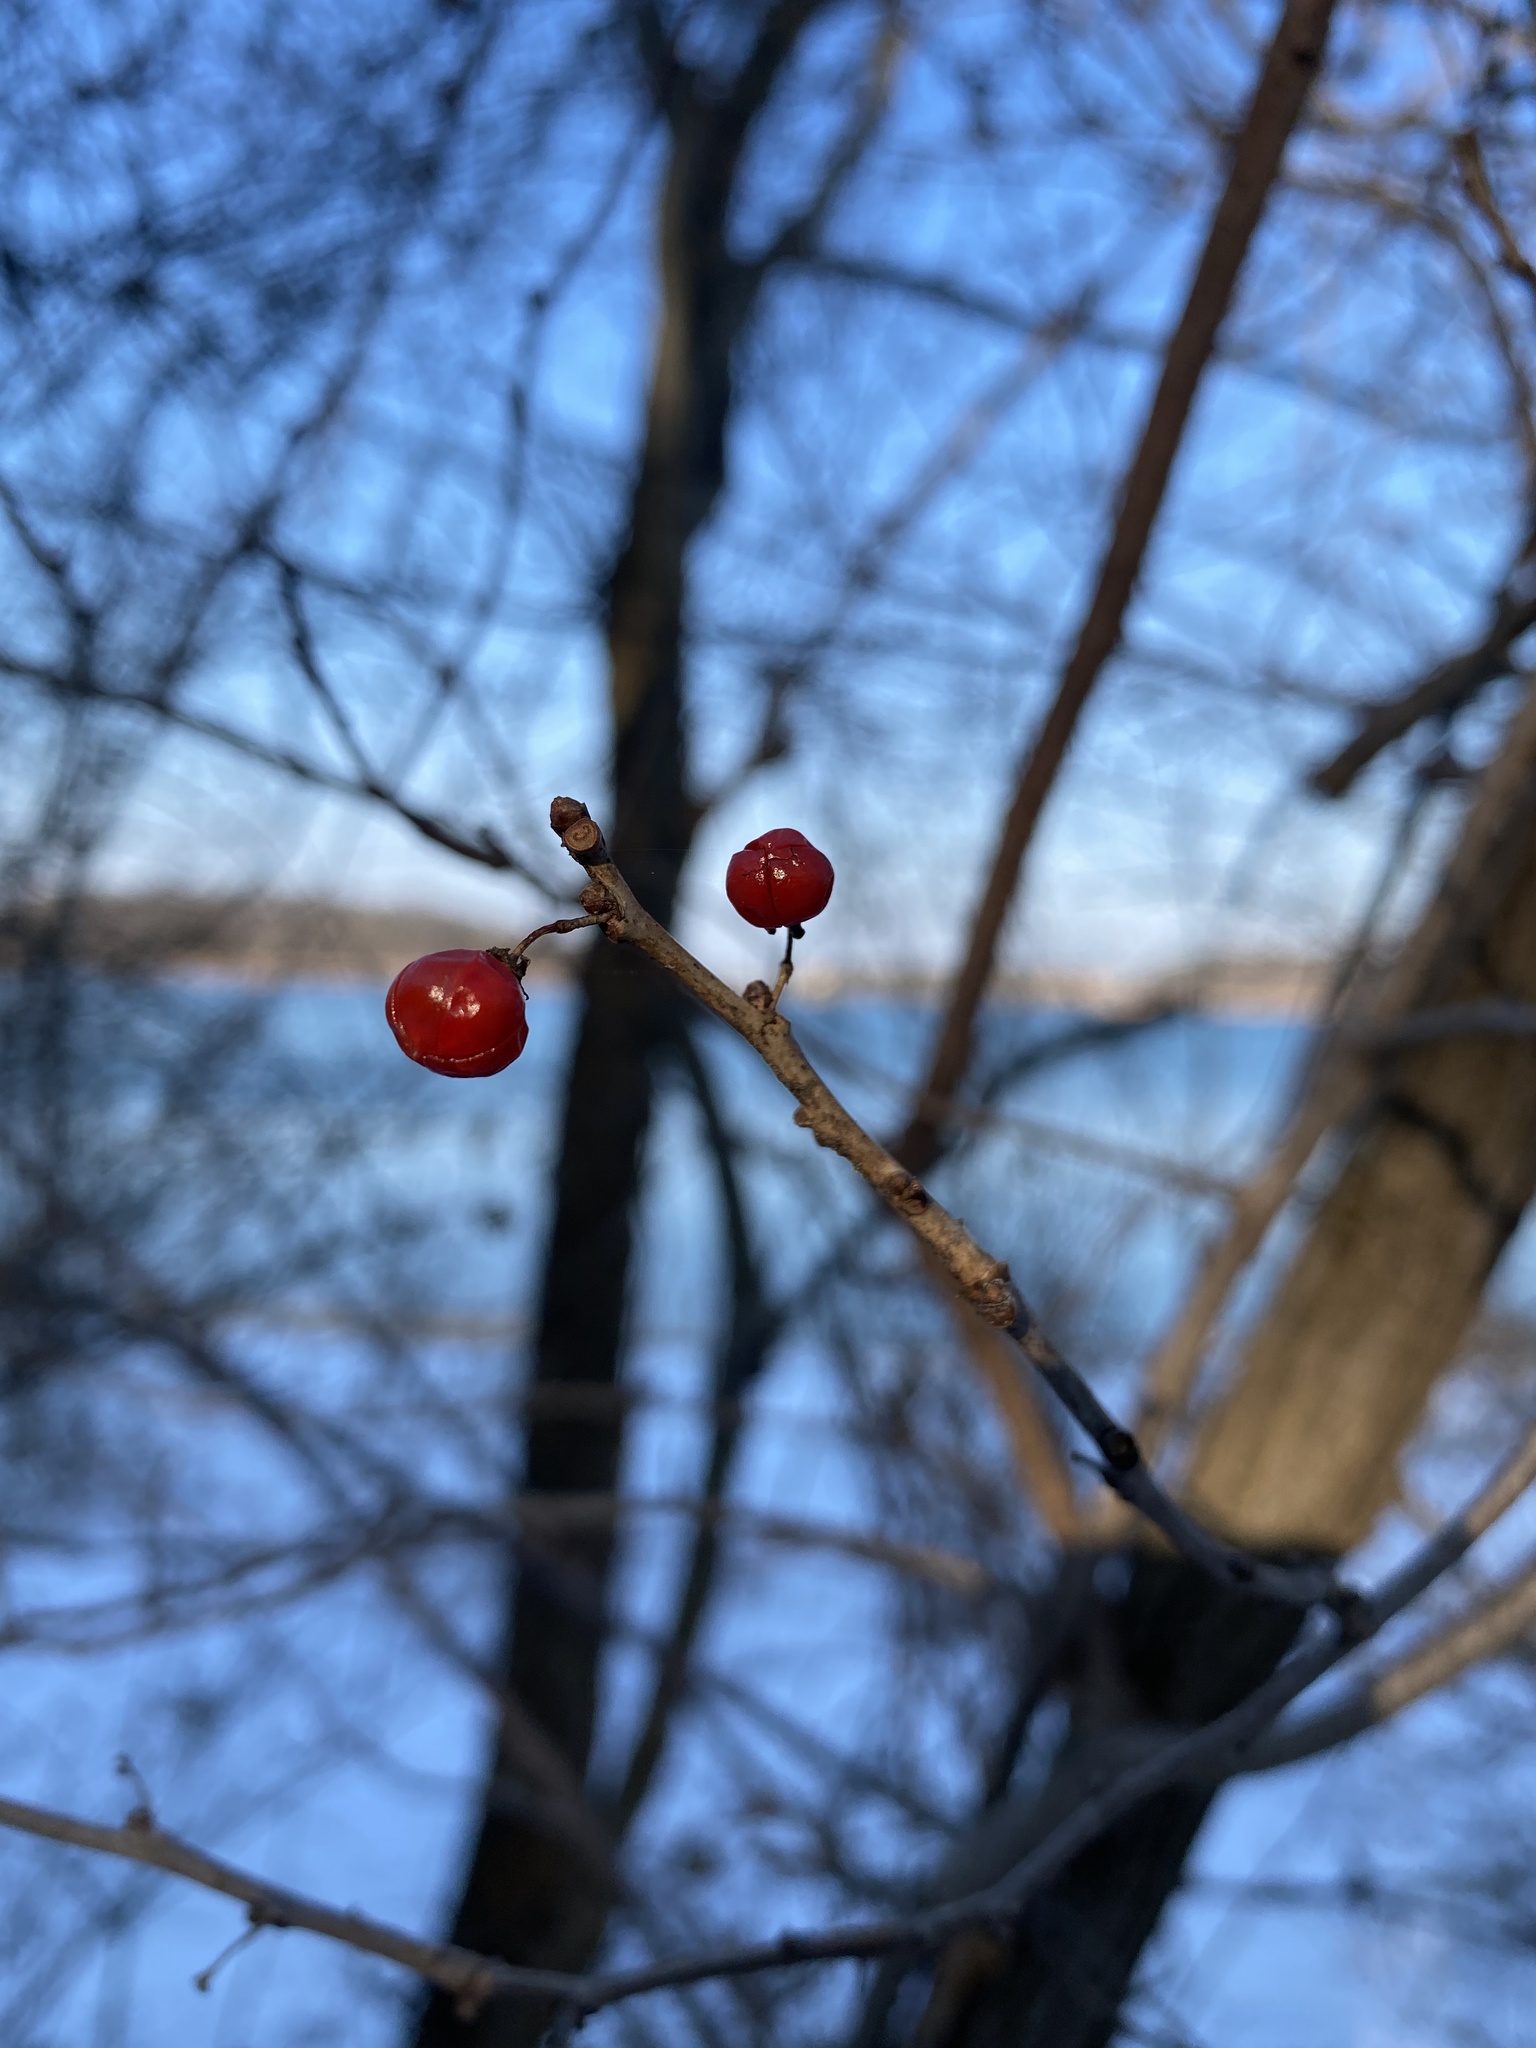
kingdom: Plantae
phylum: Tracheophyta
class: Magnoliopsida
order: Celastrales
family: Celastraceae
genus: Celastrus
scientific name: Celastrus orbiculatus
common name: Oriental bittersweet
